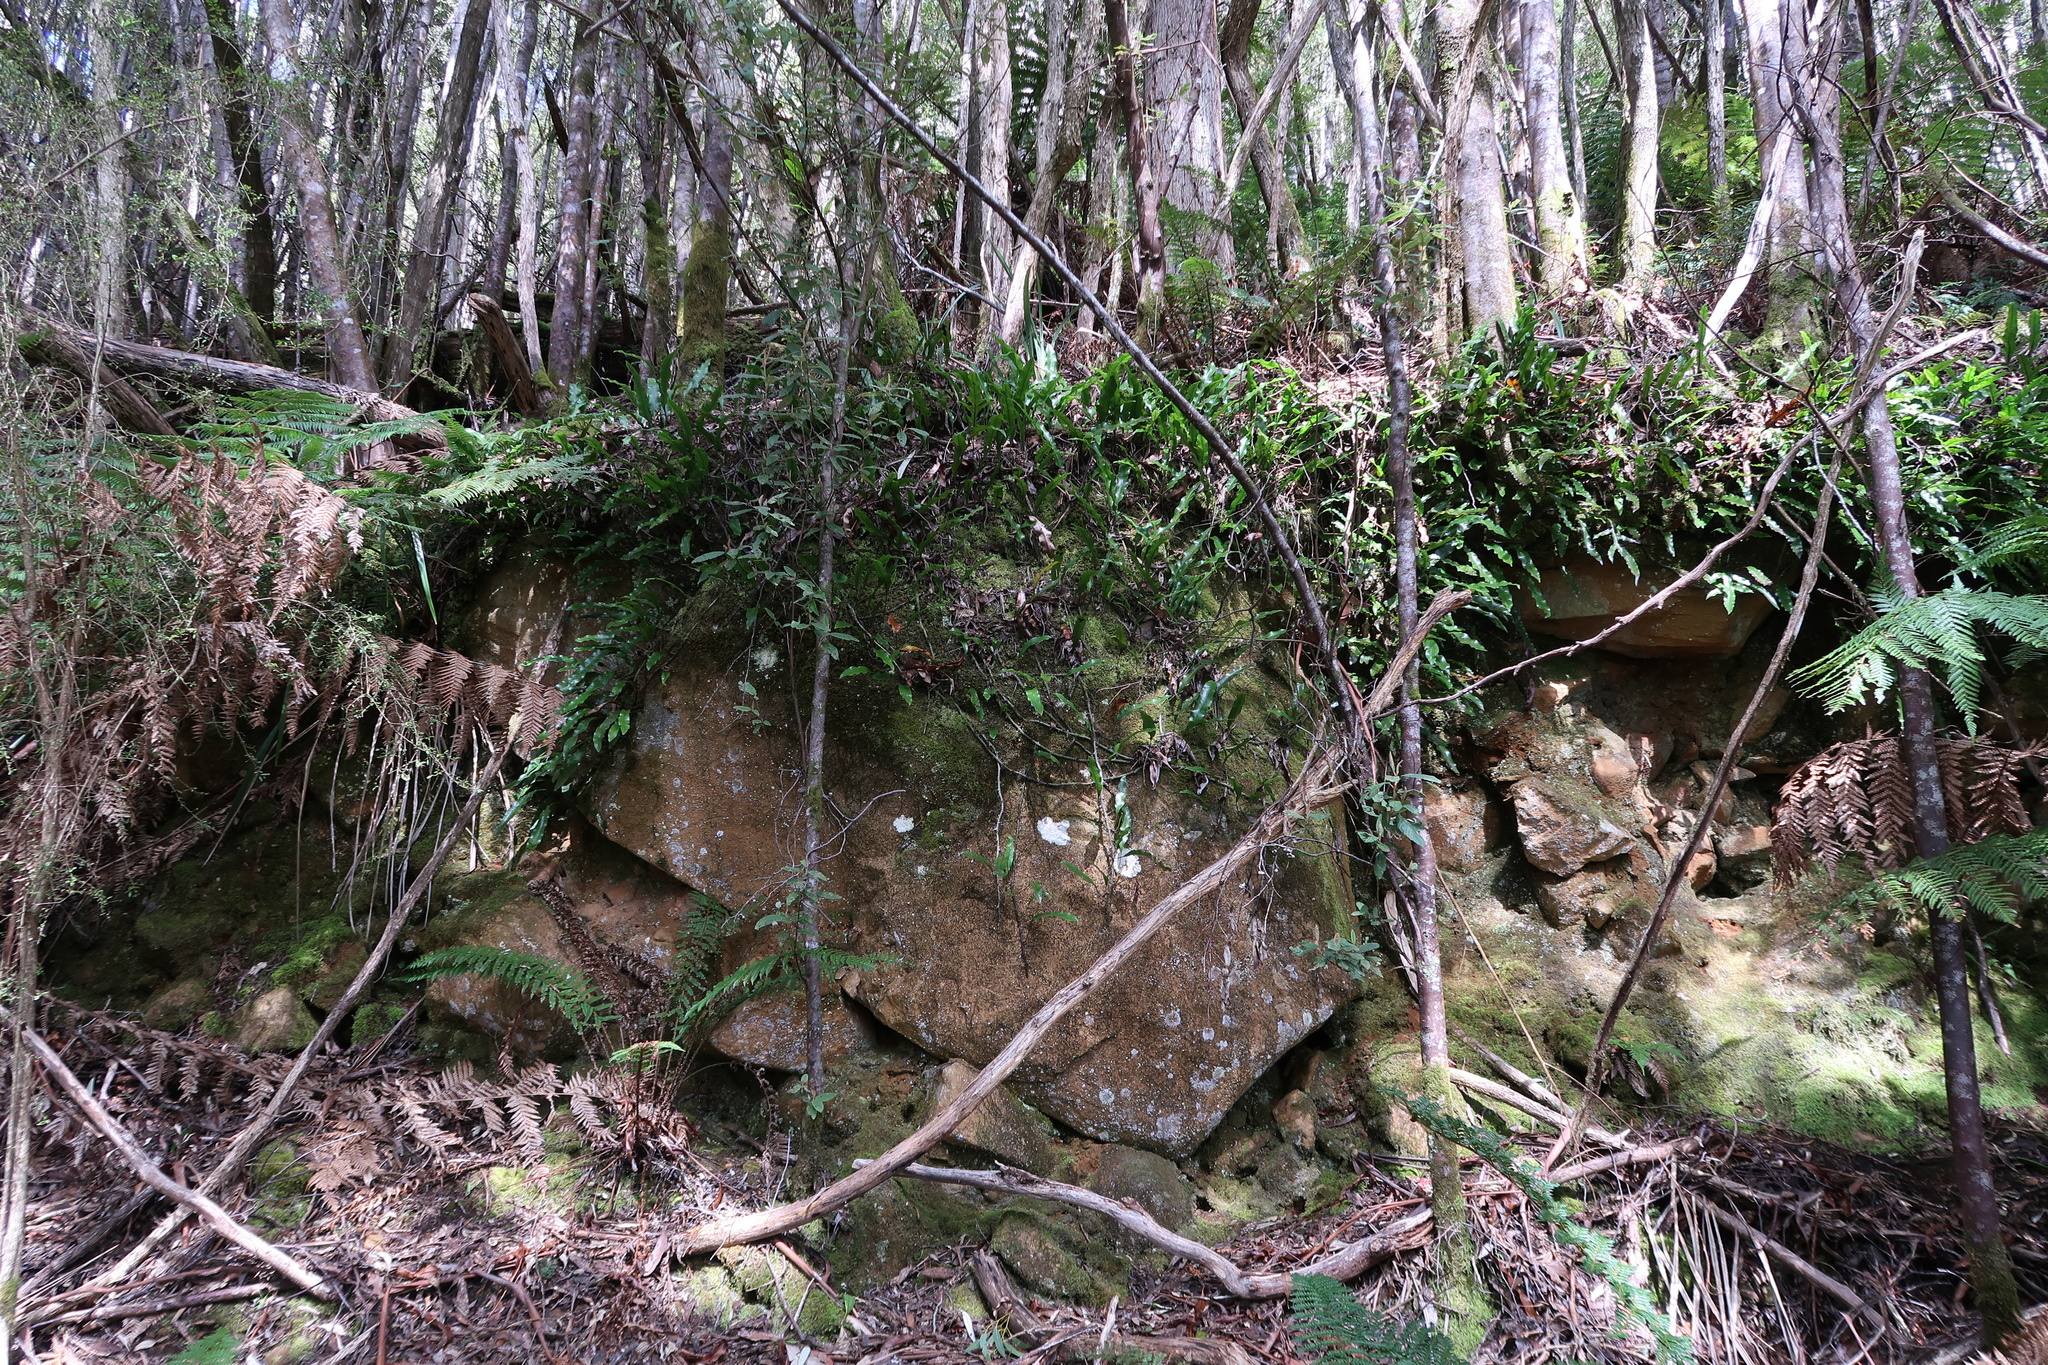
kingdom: Plantae
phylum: Tracheophyta
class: Polypodiopsida
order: Polypodiales
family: Polypodiaceae
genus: Lecanopteris
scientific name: Lecanopteris pustulata
